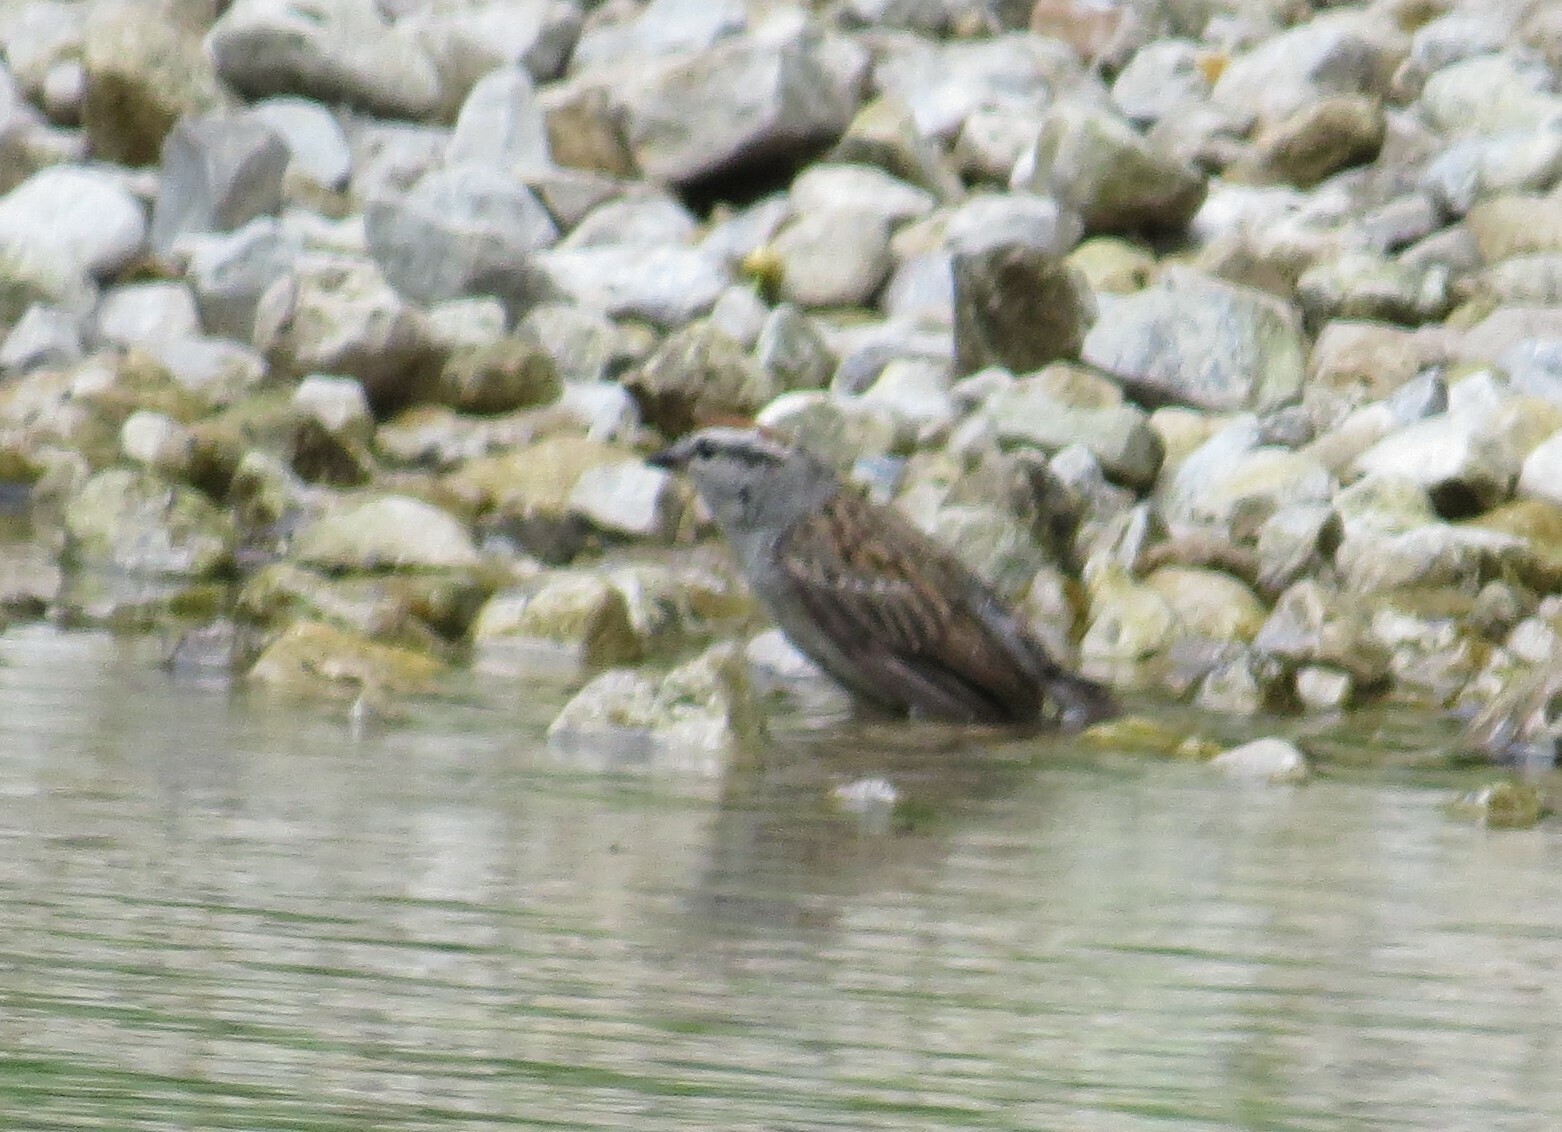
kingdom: Animalia
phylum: Chordata
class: Aves
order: Passeriformes
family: Passerellidae
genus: Spizella
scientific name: Spizella passerina
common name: Chipping sparrow
